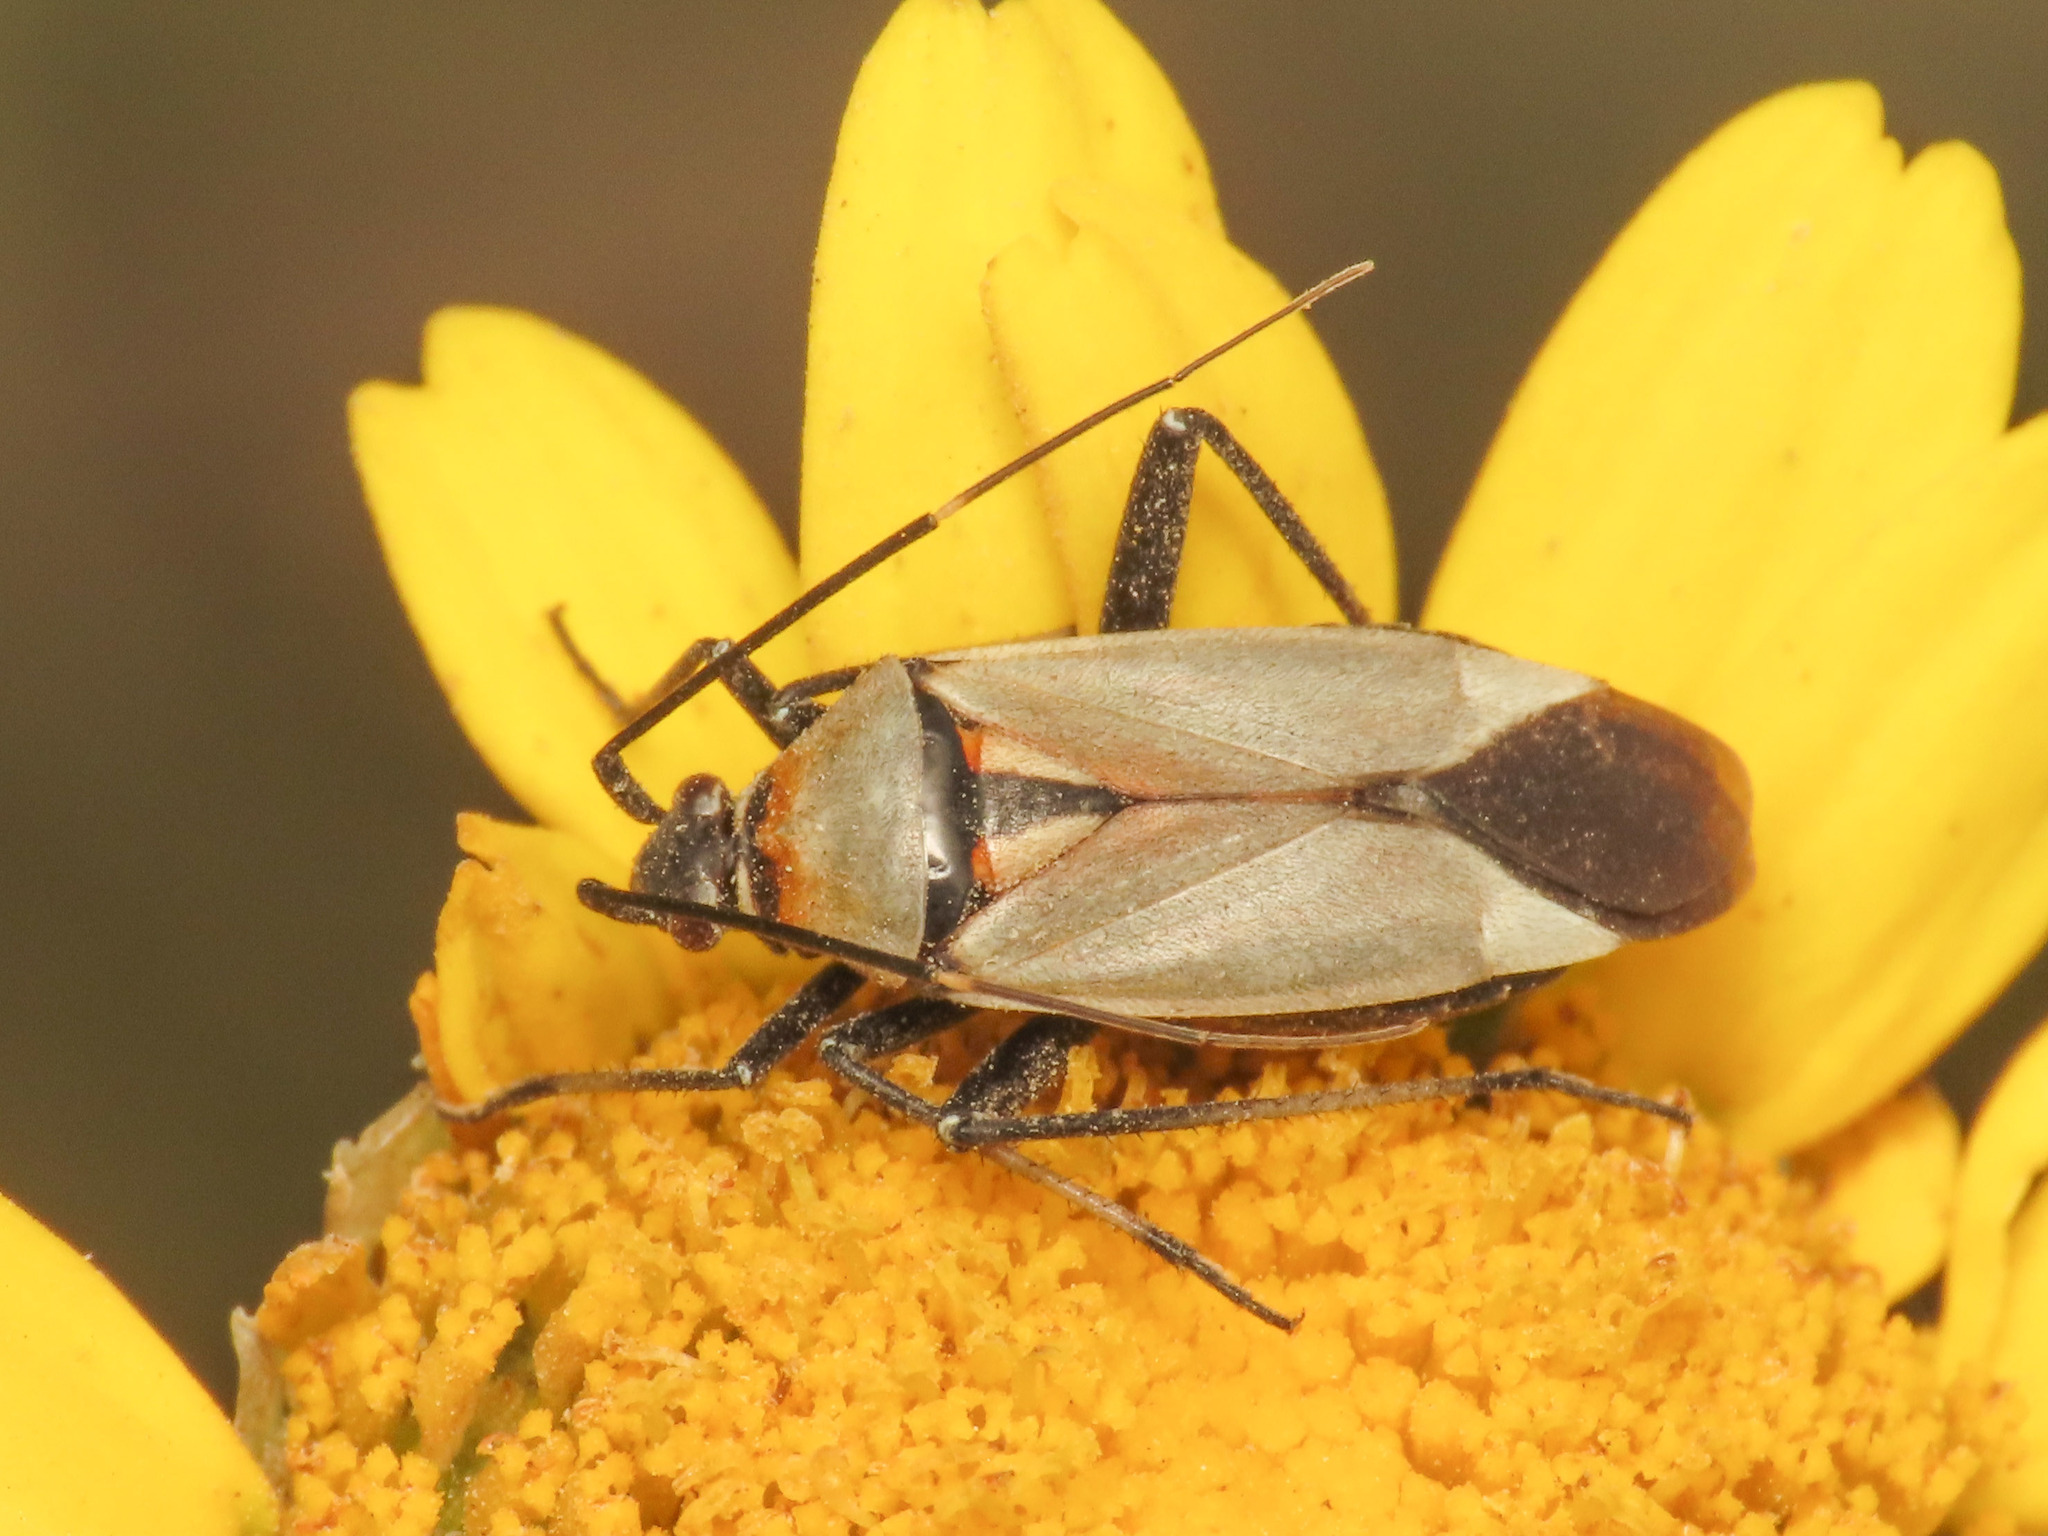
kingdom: Animalia
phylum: Arthropoda
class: Insecta
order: Hemiptera
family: Miridae
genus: Calocoris
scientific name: Calocoris nemoralis
